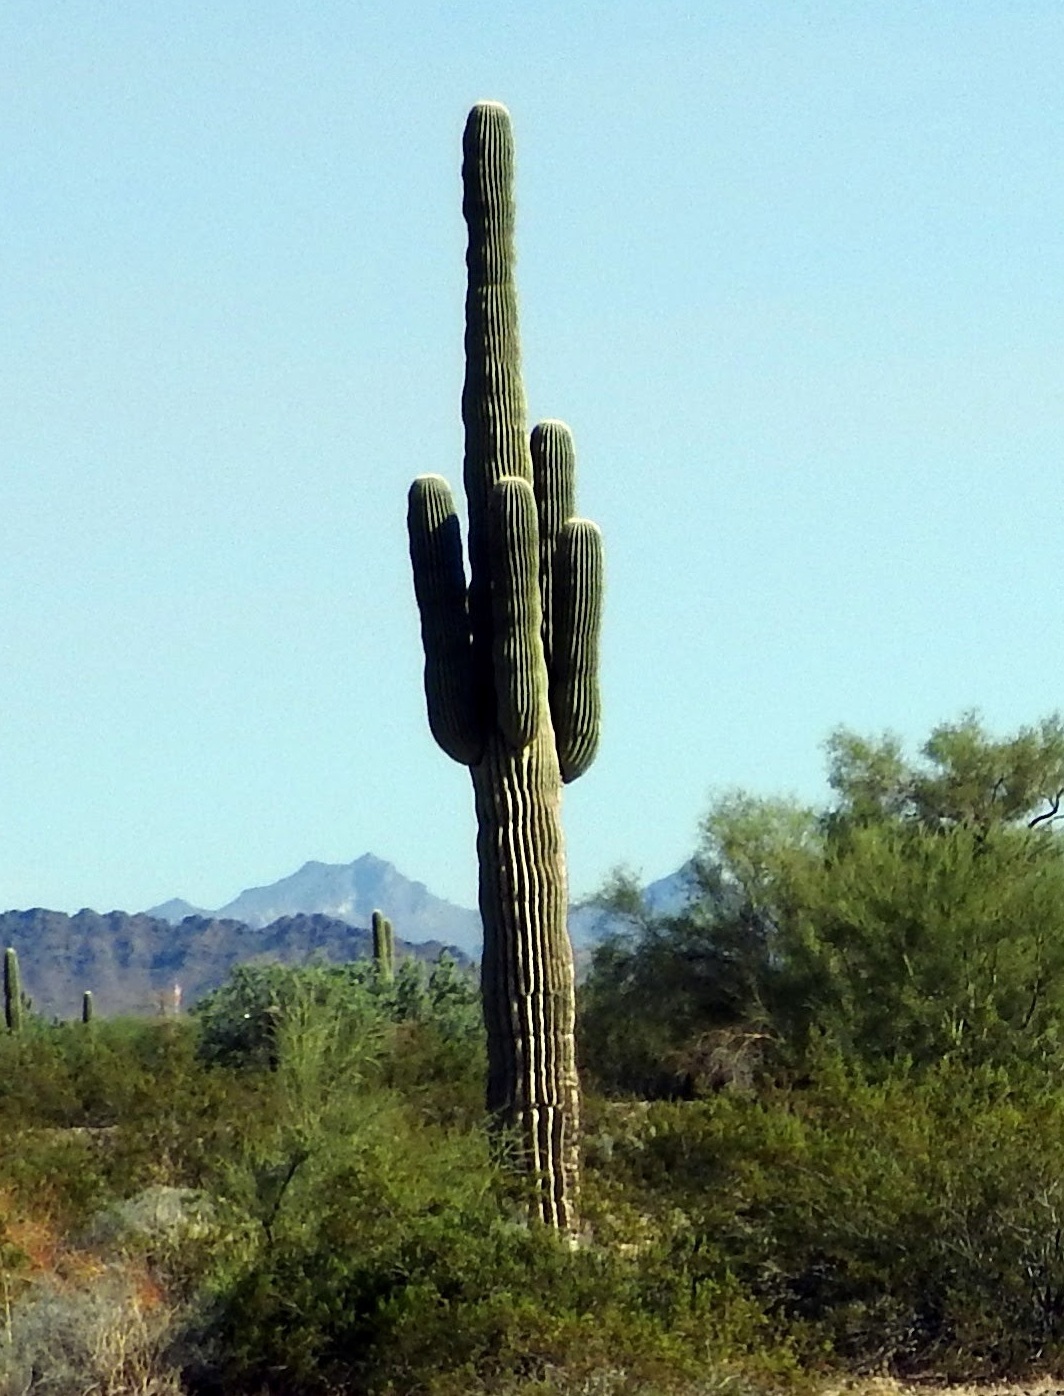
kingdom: Plantae
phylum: Tracheophyta
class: Magnoliopsida
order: Caryophyllales
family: Cactaceae
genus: Carnegiea
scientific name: Carnegiea gigantea
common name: Saguaro
